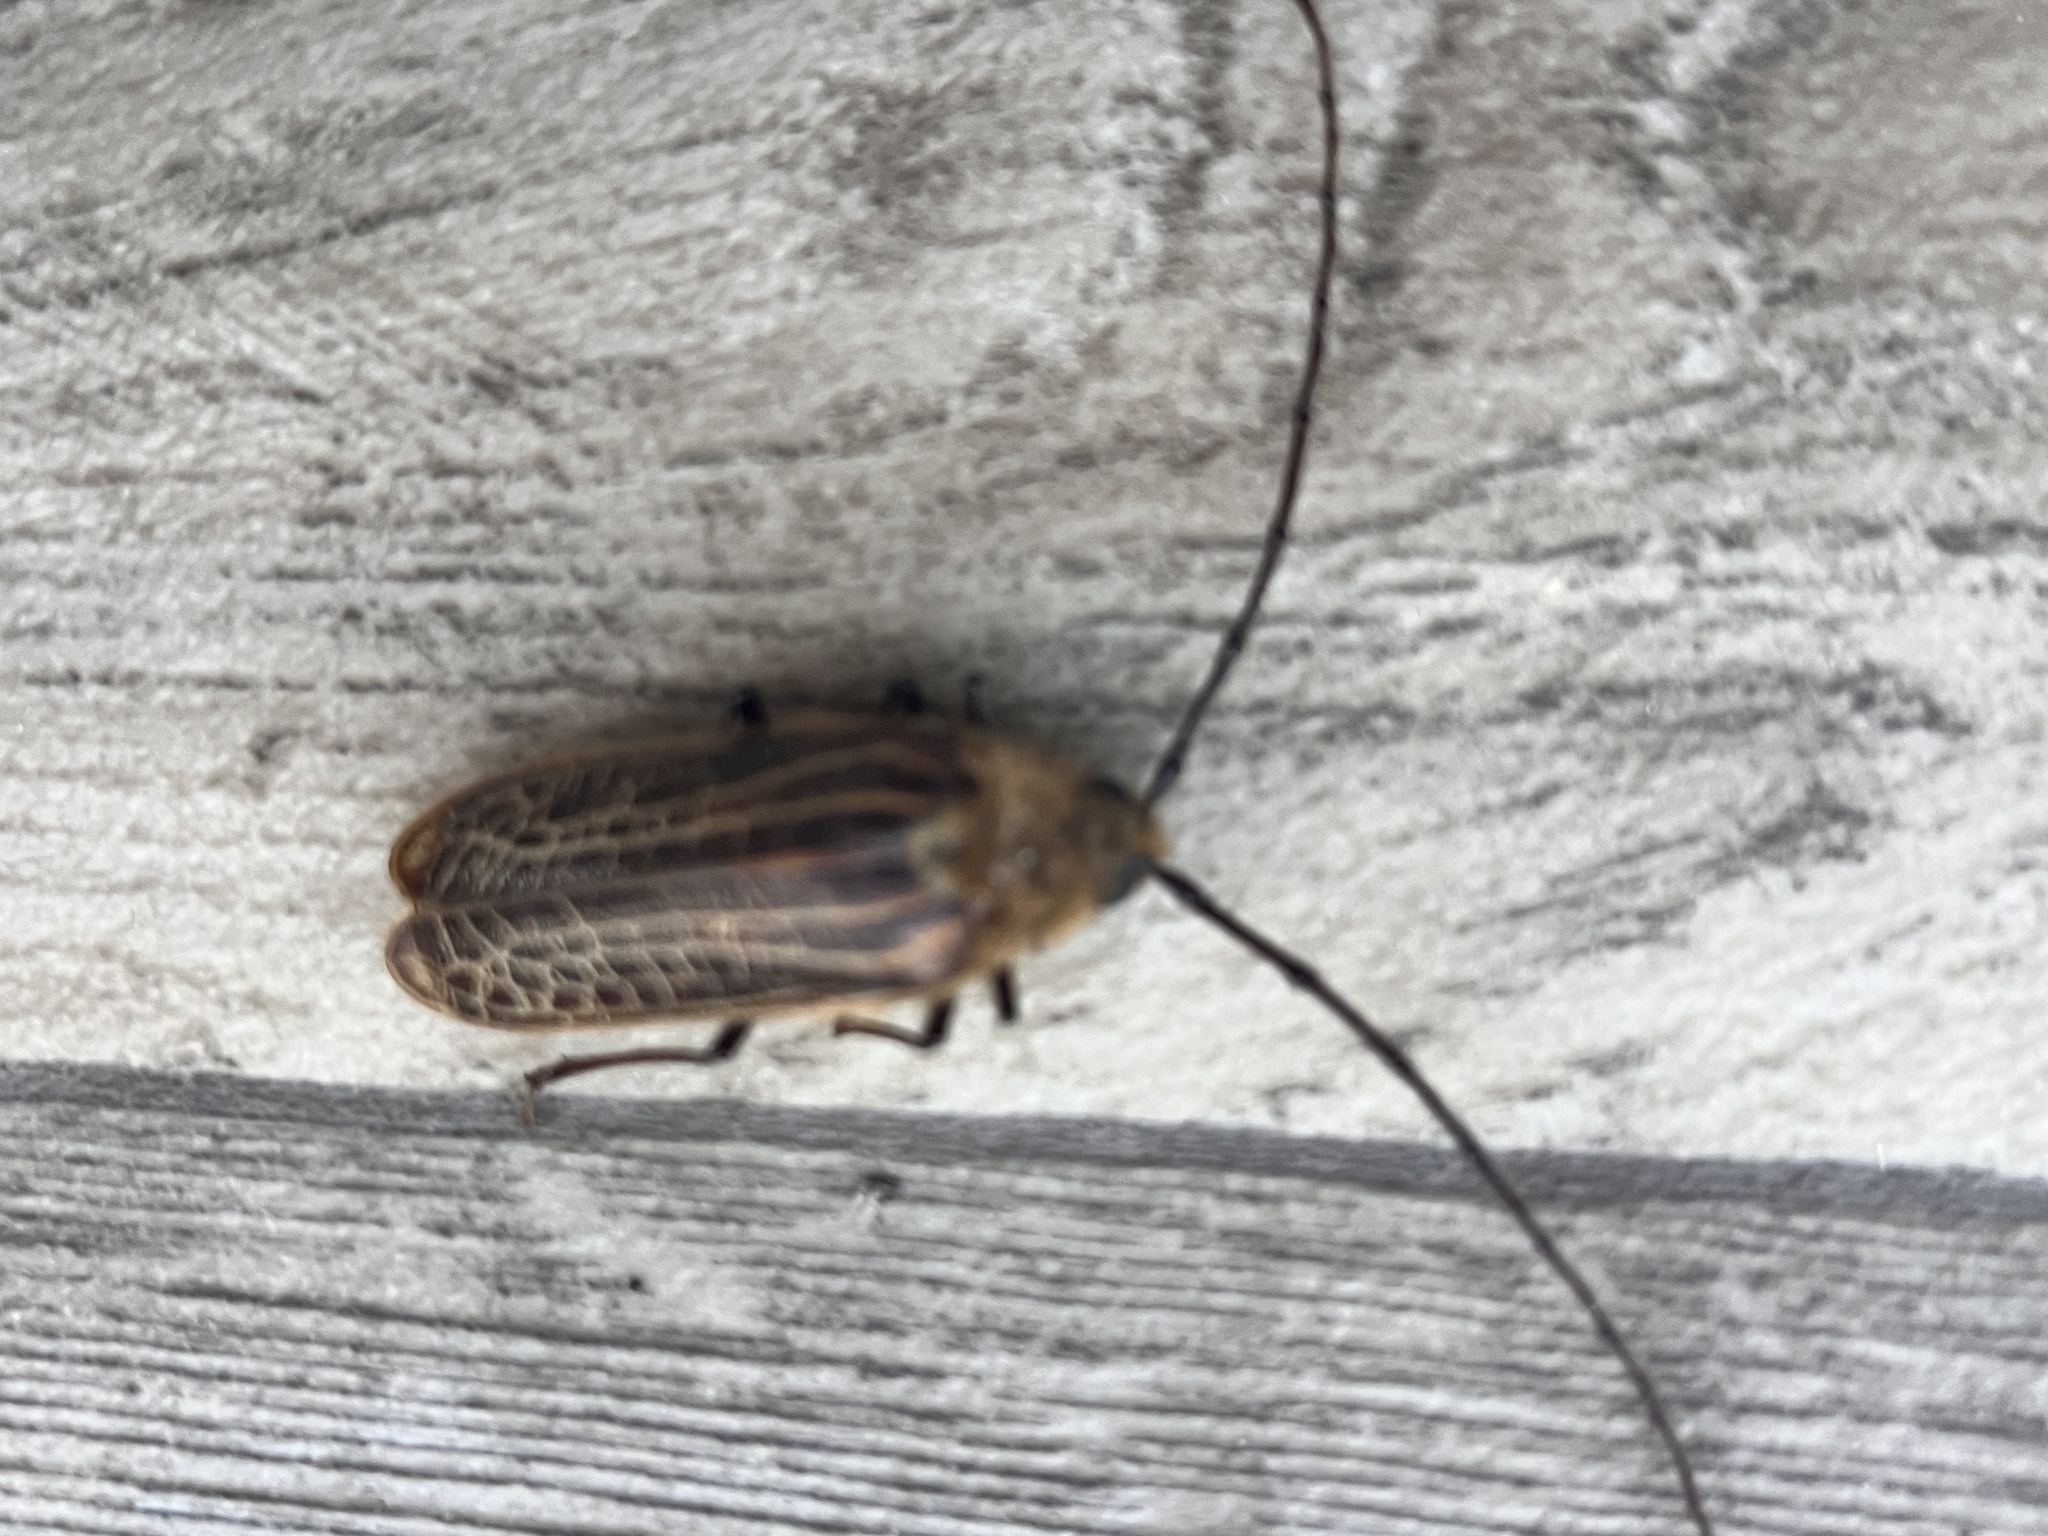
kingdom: Animalia
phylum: Arthropoda
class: Insecta
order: Coleoptera
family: Cerambycidae
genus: Prionoplus
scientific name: Prionoplus reticularis
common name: Huhu beetle
